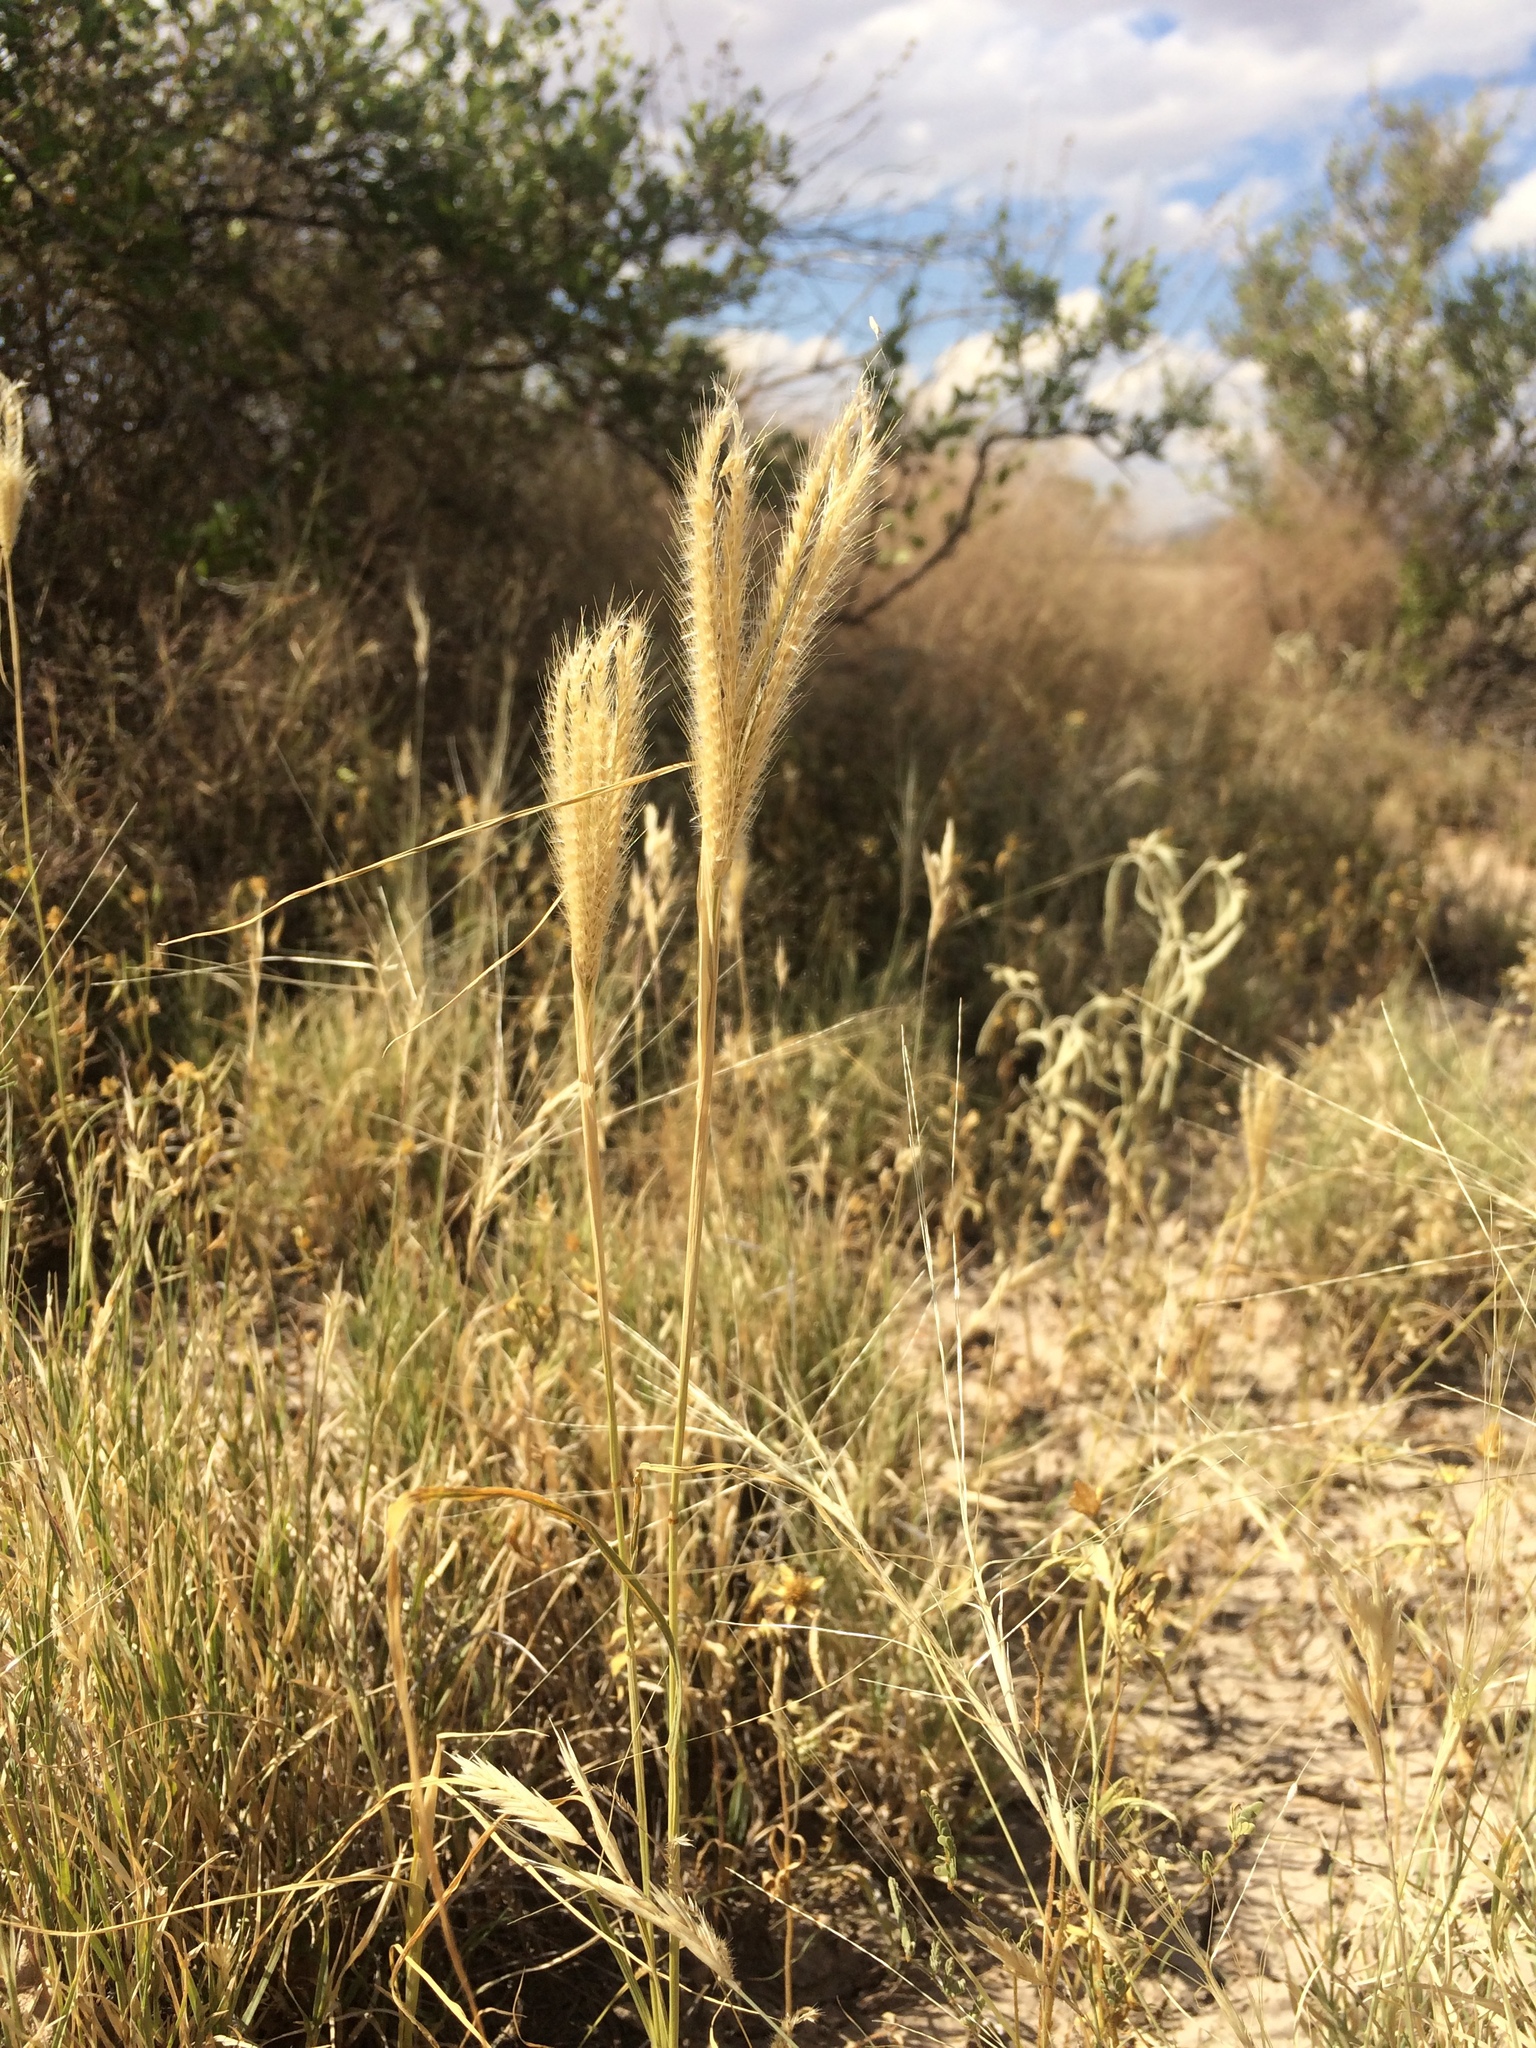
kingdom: Plantae
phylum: Tracheophyta
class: Liliopsida
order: Poales
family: Poaceae
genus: Chloris
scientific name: Chloris virgata
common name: Feathery rhodes-grass
